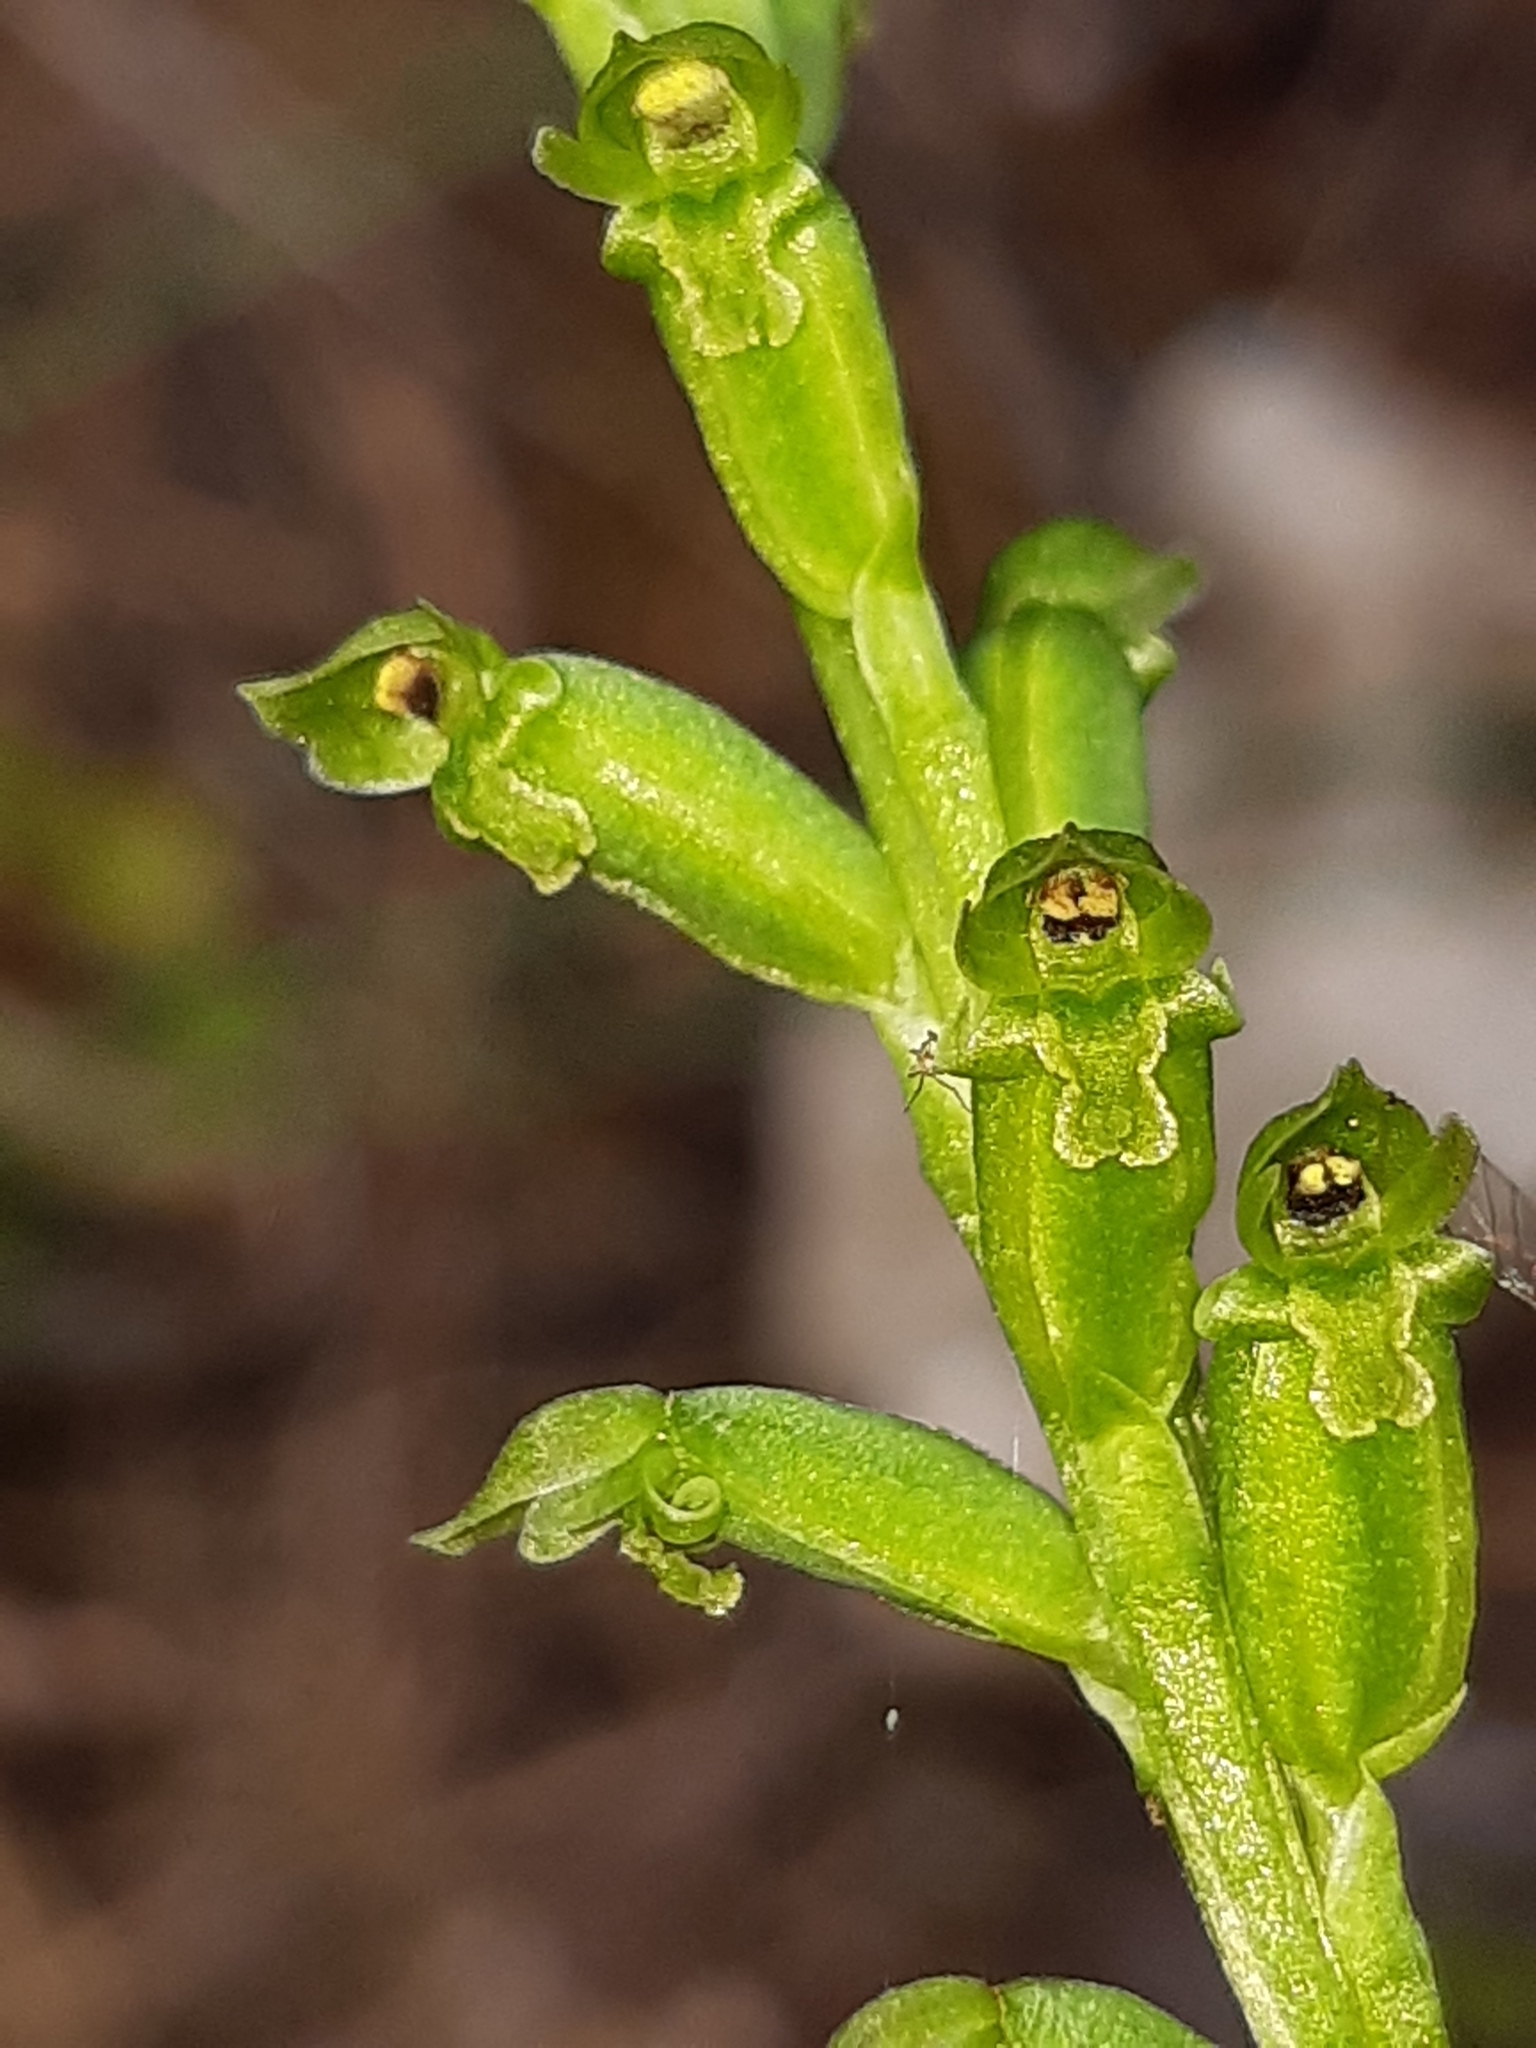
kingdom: Plantae
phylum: Tracheophyta
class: Liliopsida
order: Asparagales
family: Orchidaceae
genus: Microtis
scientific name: Microtis unifolia
